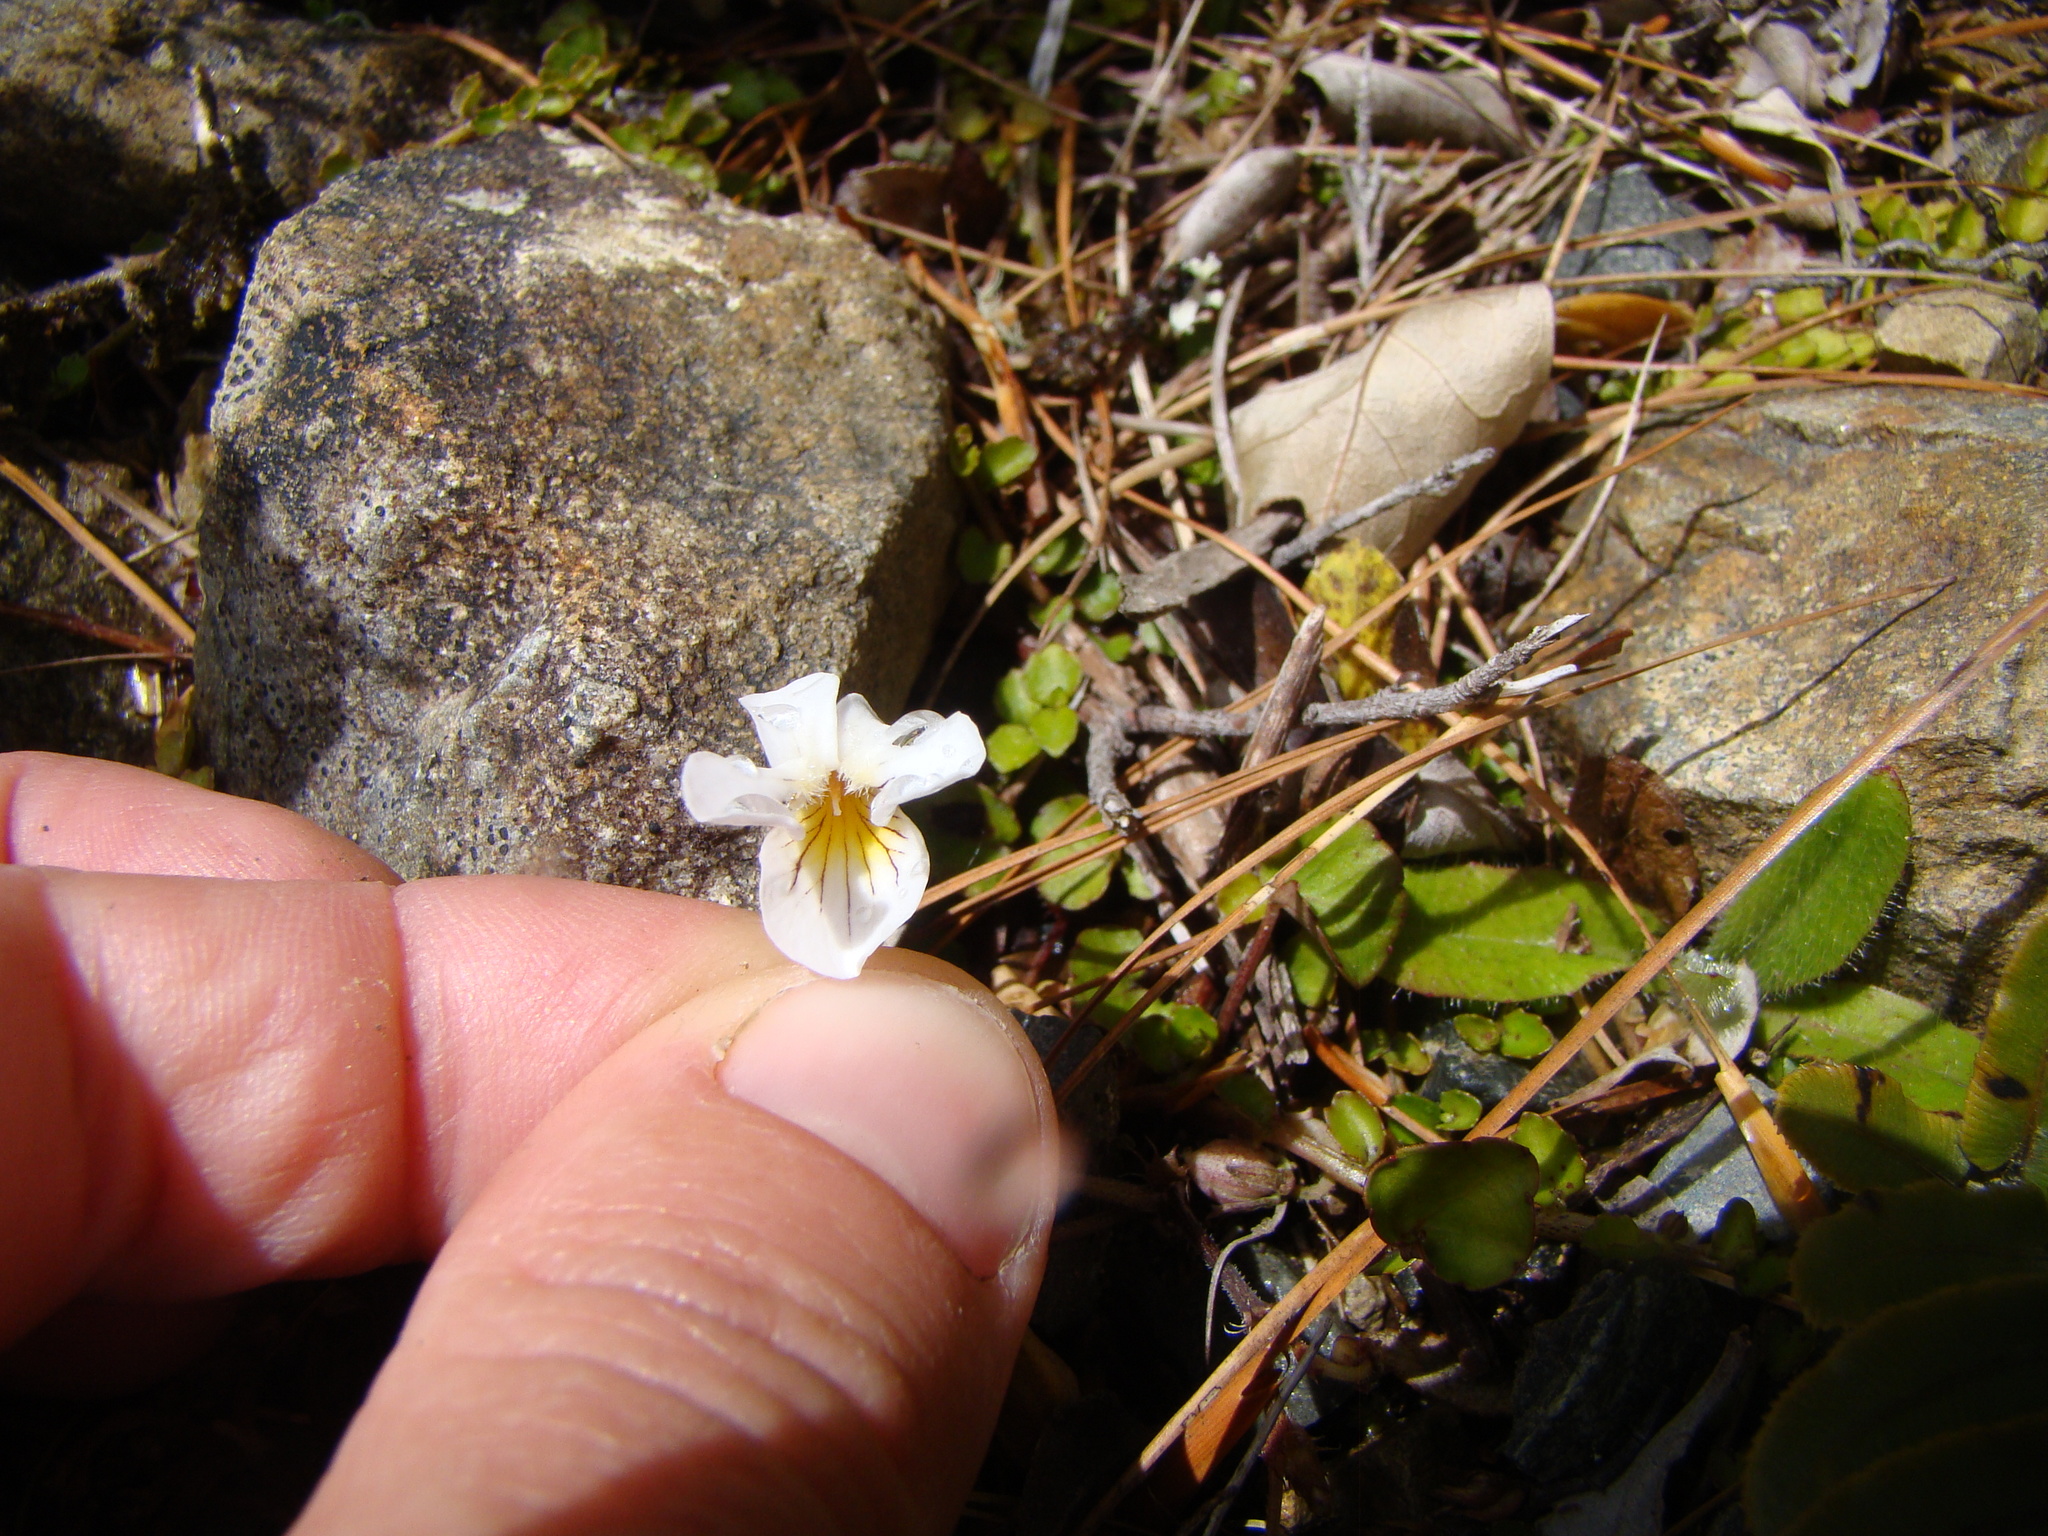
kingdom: Plantae
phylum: Tracheophyta
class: Magnoliopsida
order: Malpighiales
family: Violaceae
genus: Viola
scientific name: Viola filicaulis
